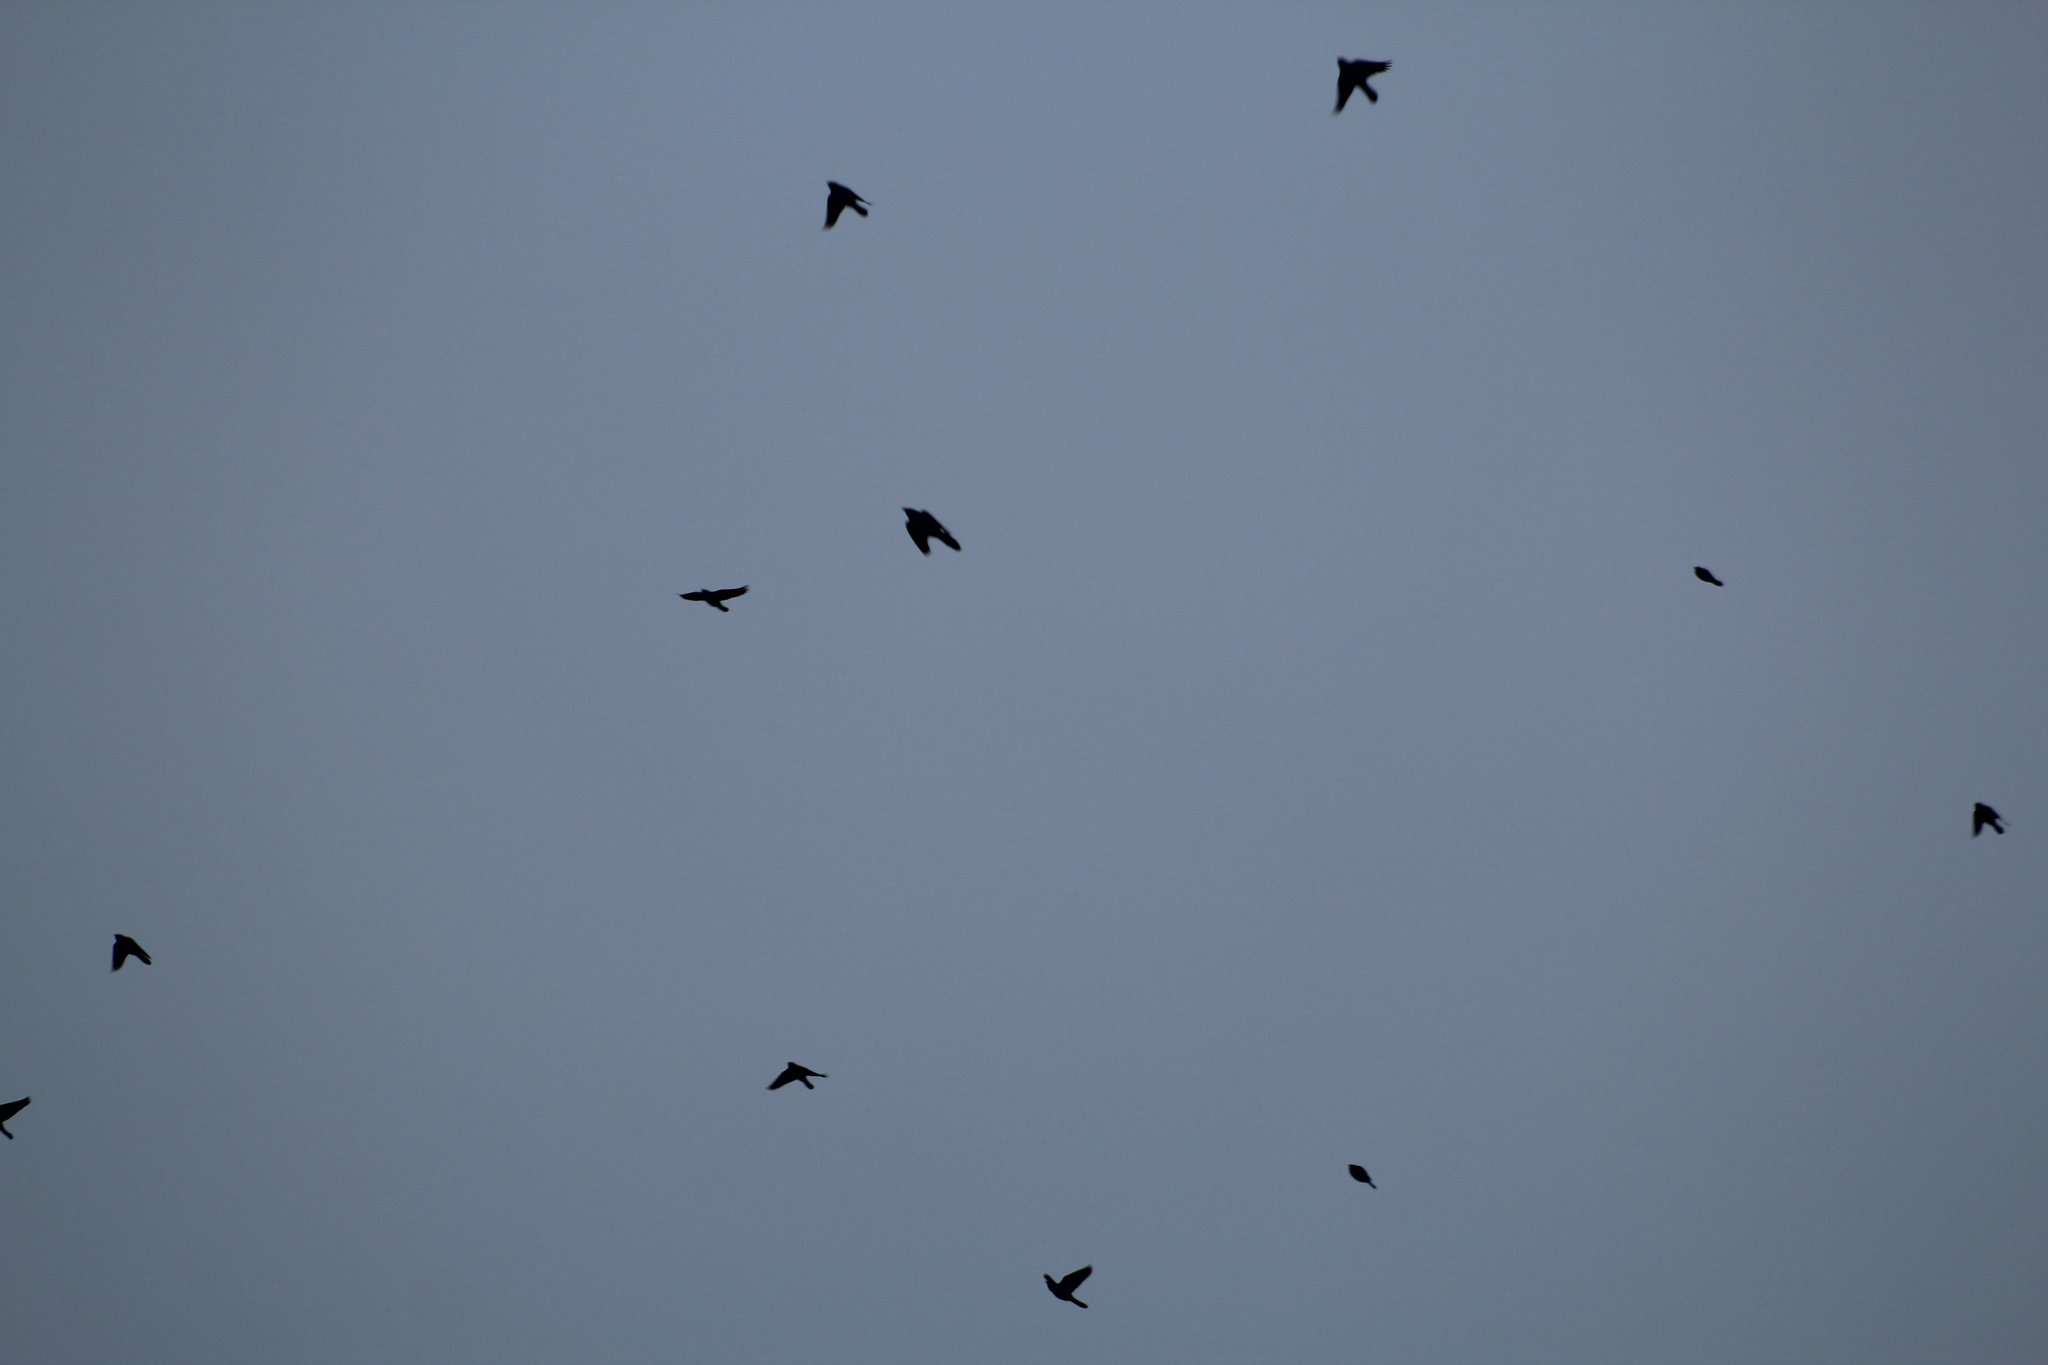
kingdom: Animalia
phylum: Chordata
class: Aves
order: Passeriformes
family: Icteridae
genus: Quiscalus
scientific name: Quiscalus quiscula
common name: Common grackle
